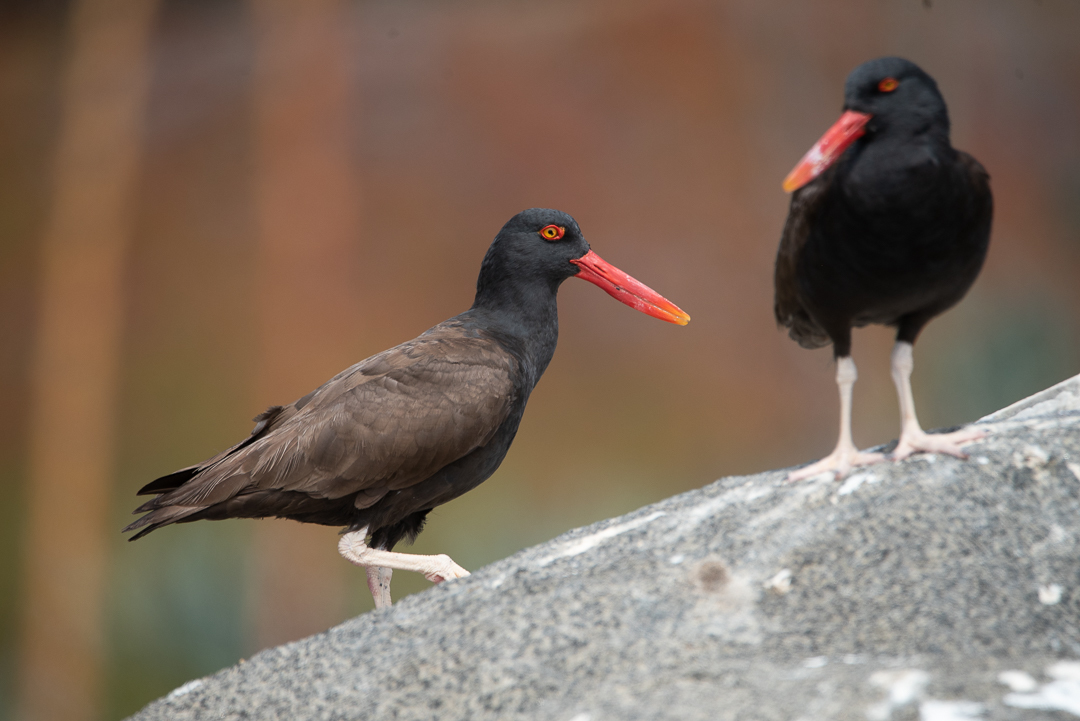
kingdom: Animalia
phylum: Chordata
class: Aves
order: Charadriiformes
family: Haematopodidae
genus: Haematopus
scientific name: Haematopus ater
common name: Blackish oystercatcher
